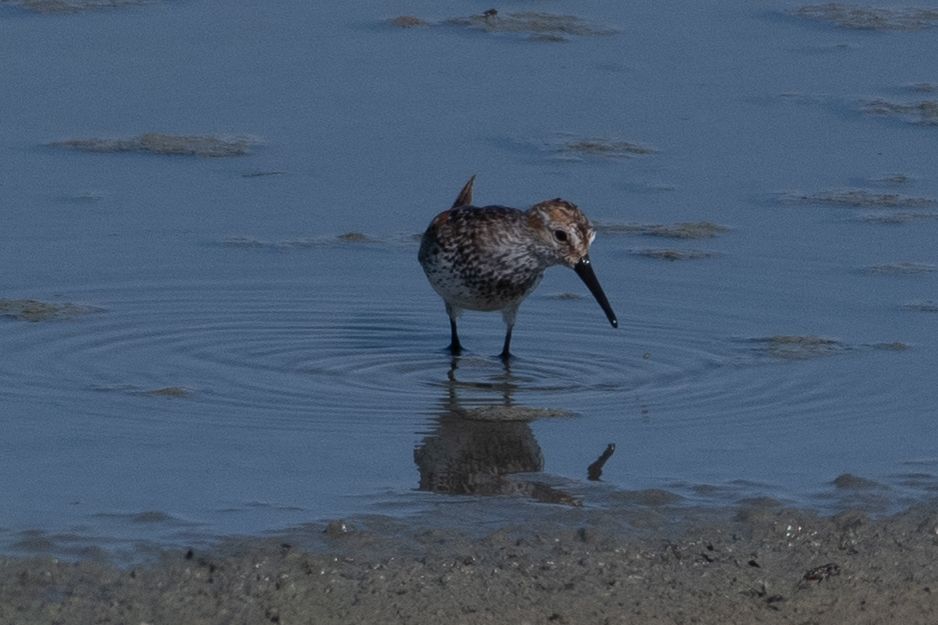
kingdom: Animalia
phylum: Chordata
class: Aves
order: Charadriiformes
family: Scolopacidae
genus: Calidris
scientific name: Calidris mauri
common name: Western sandpiper
